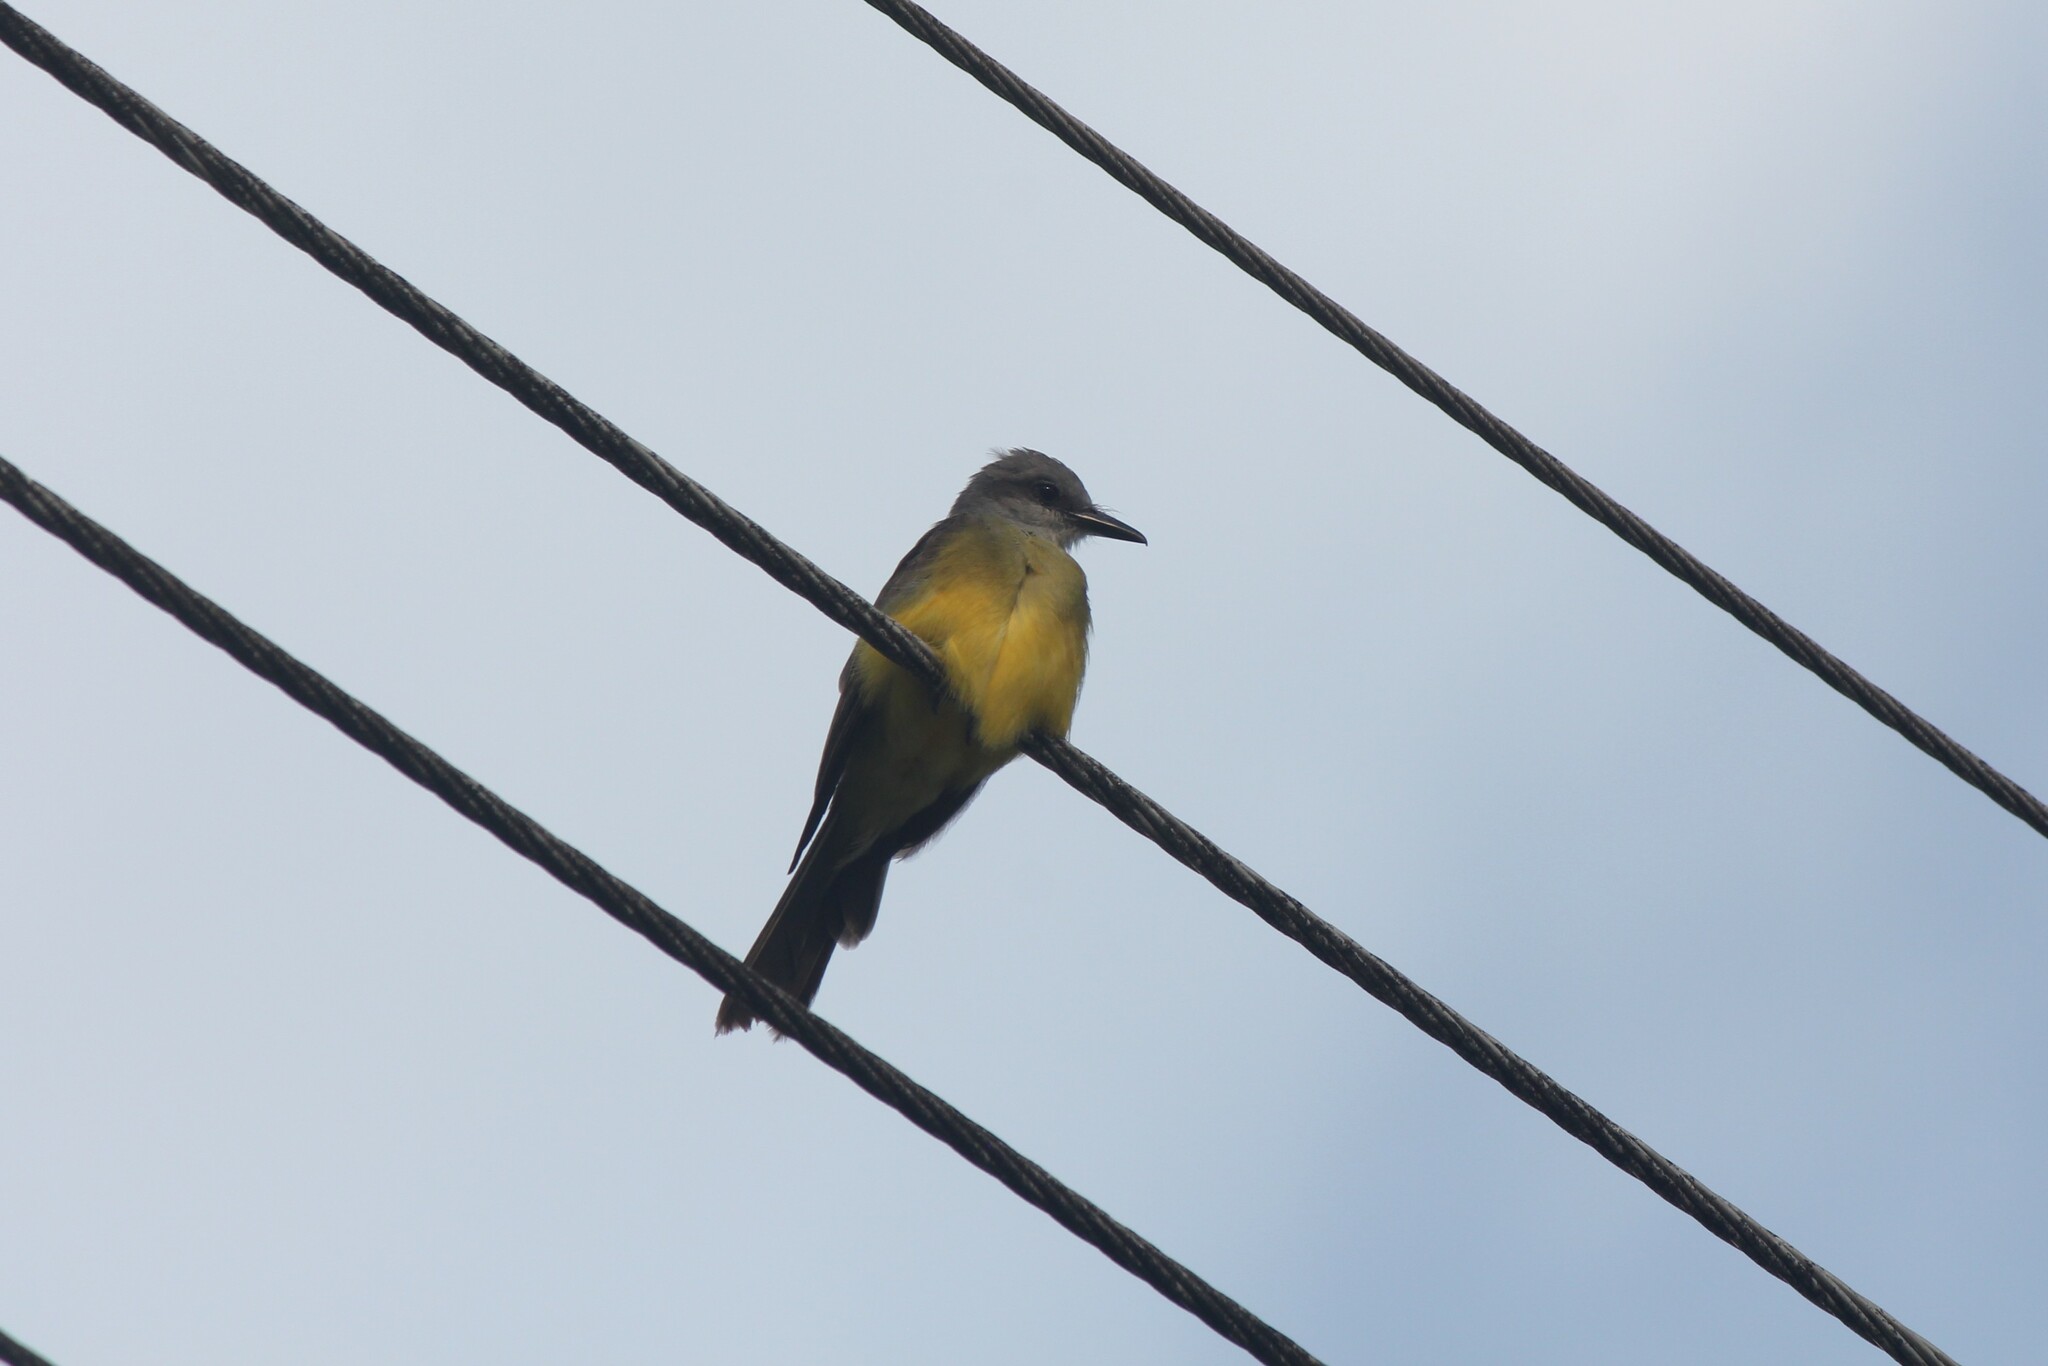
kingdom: Animalia
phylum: Chordata
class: Aves
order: Passeriformes
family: Tyrannidae
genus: Tyrannus
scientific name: Tyrannus melancholicus
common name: Tropical kingbird
